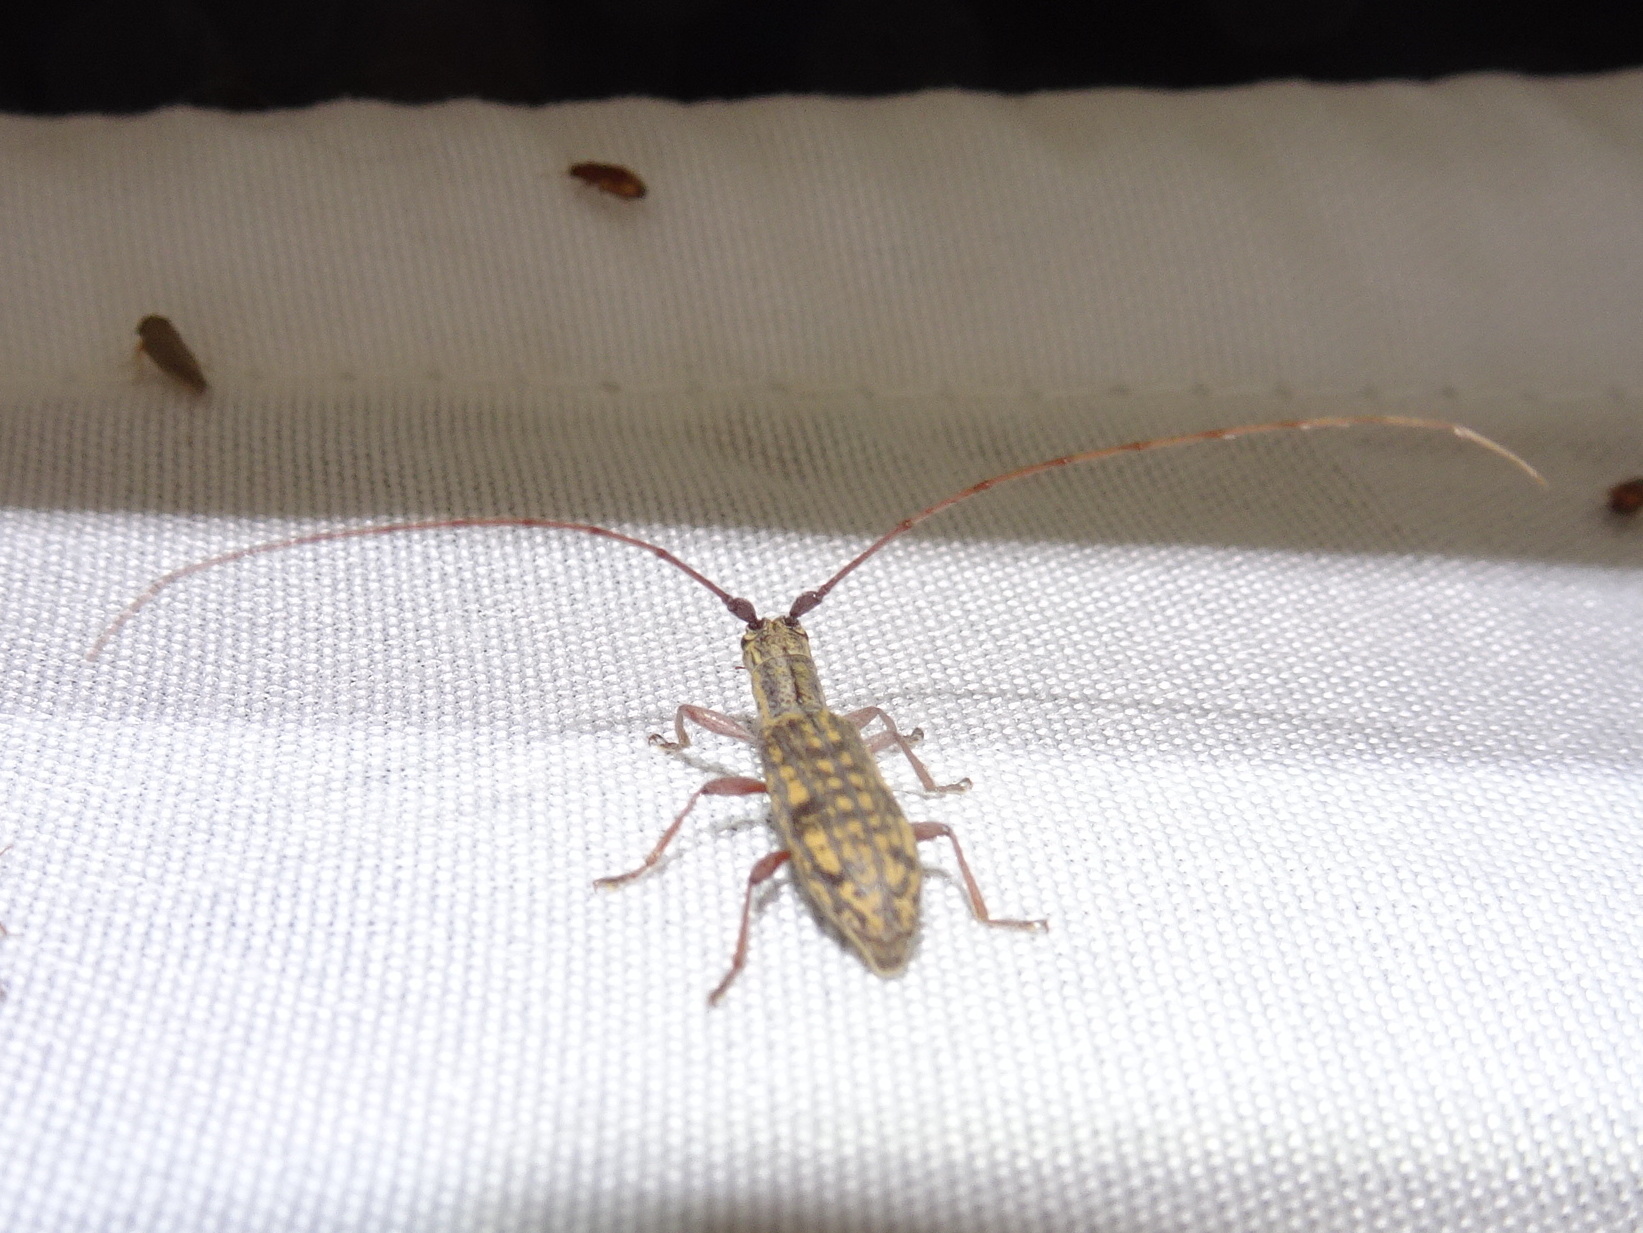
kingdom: Animalia
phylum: Arthropoda
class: Insecta
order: Coleoptera
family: Cerambycidae
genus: Dorcaschema
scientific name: Dorcaschema alternatum
